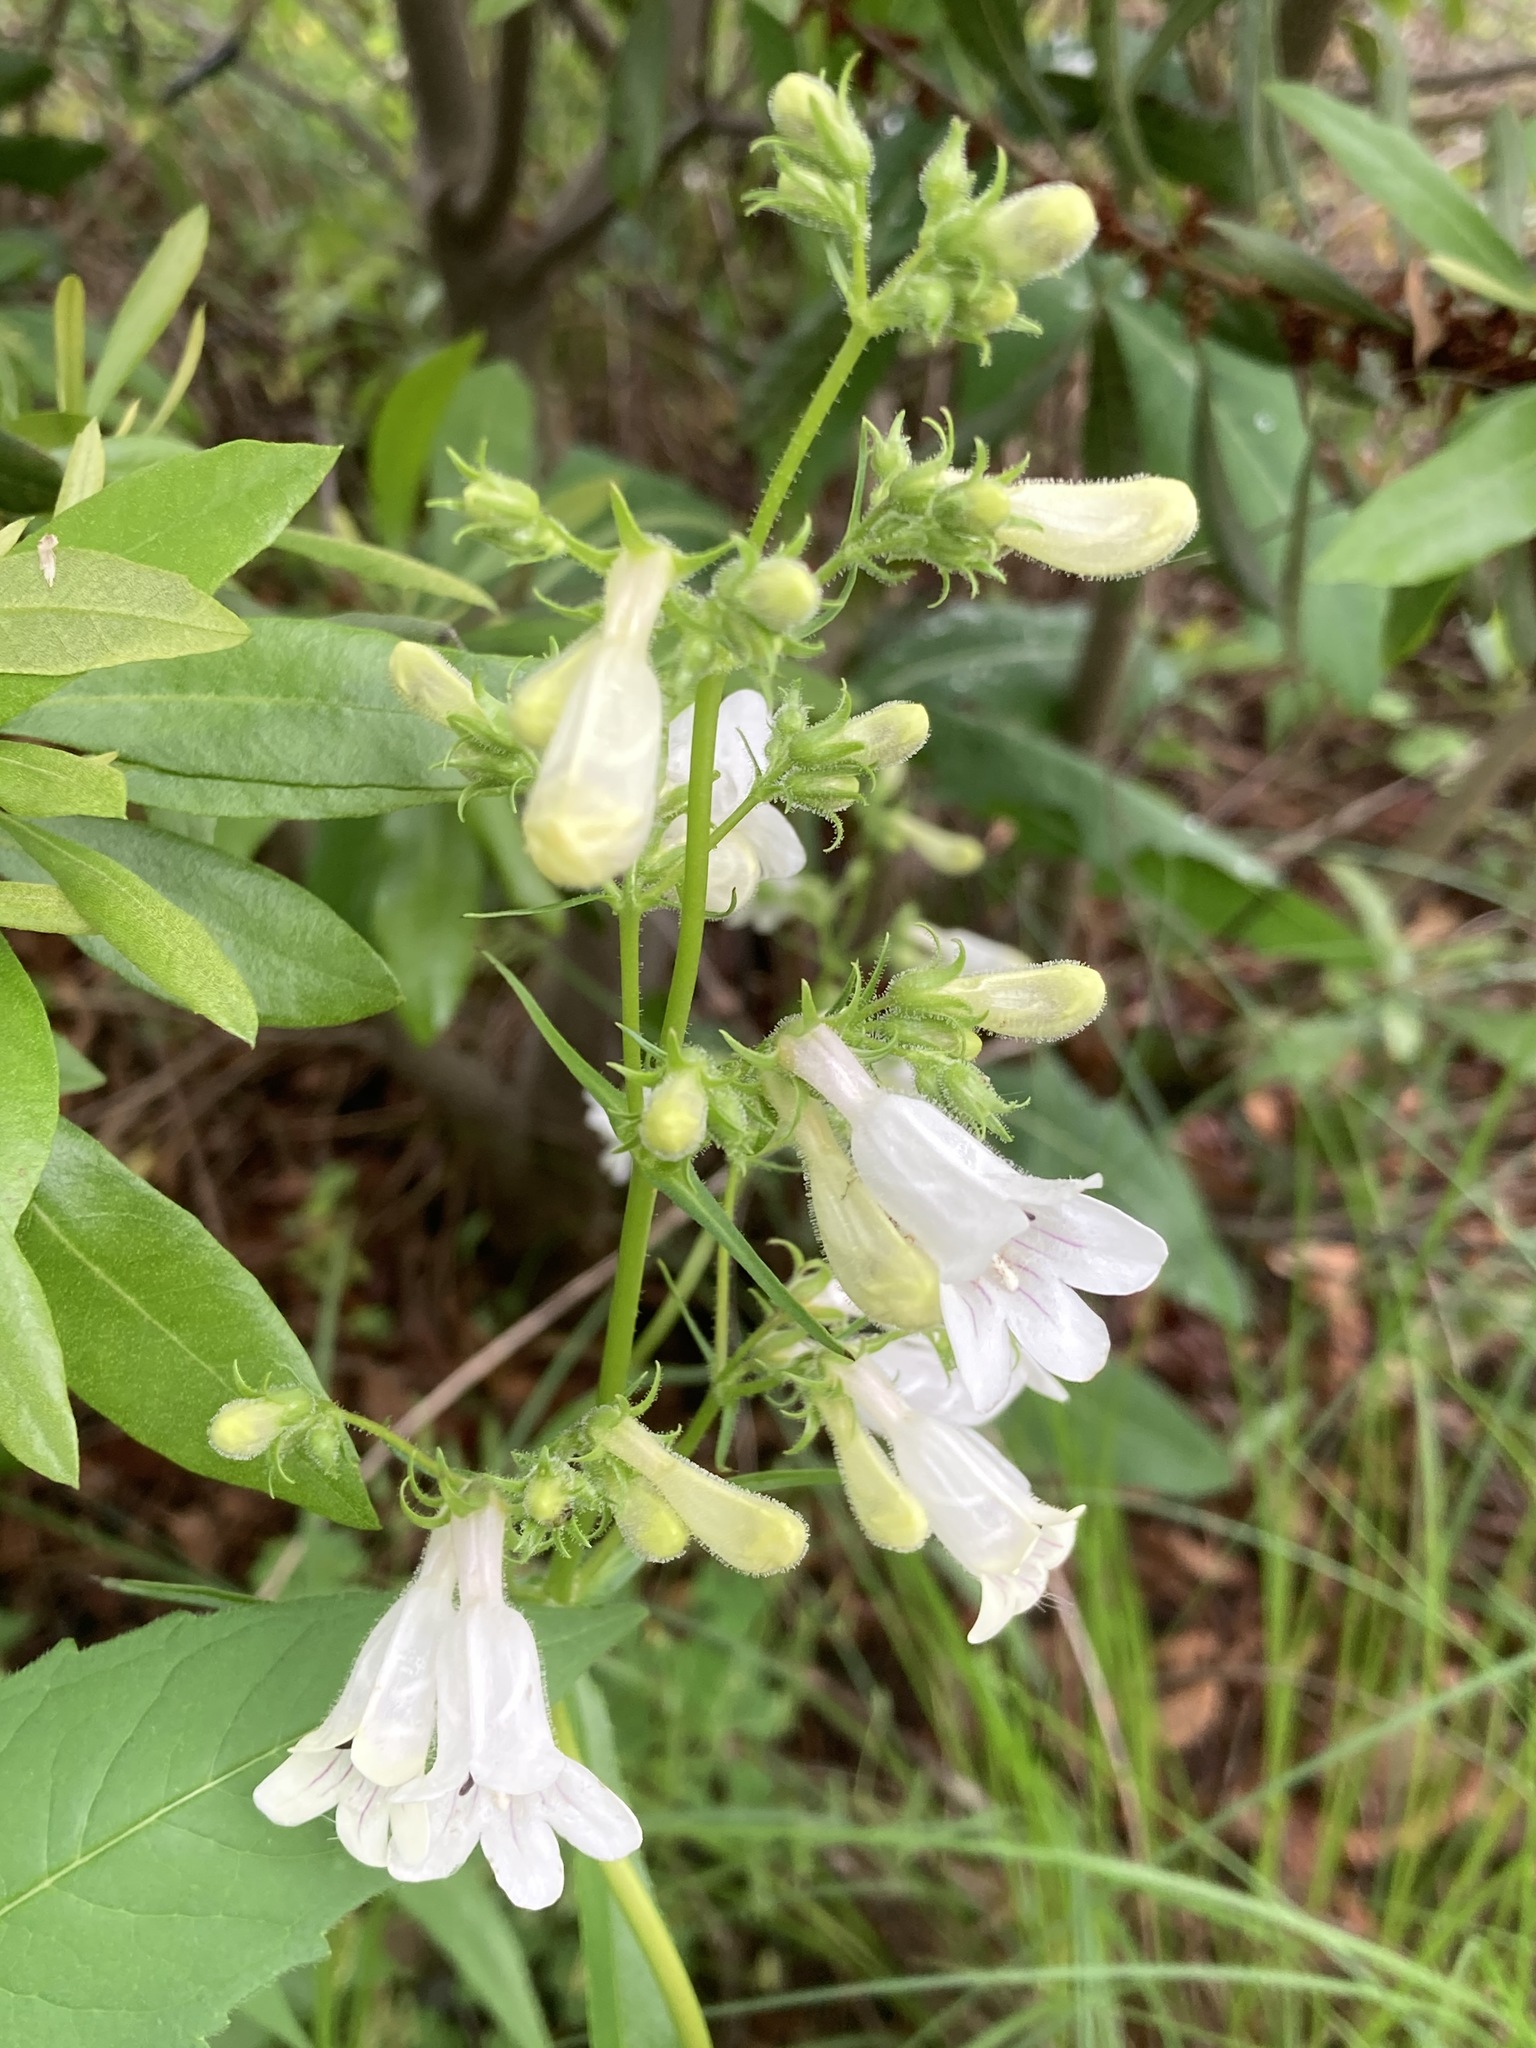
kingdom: Plantae
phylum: Tracheophyta
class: Magnoliopsida
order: Lamiales
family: Plantaginaceae
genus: Penstemon
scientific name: Penstemon digitalis
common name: Foxglove beardtongue
